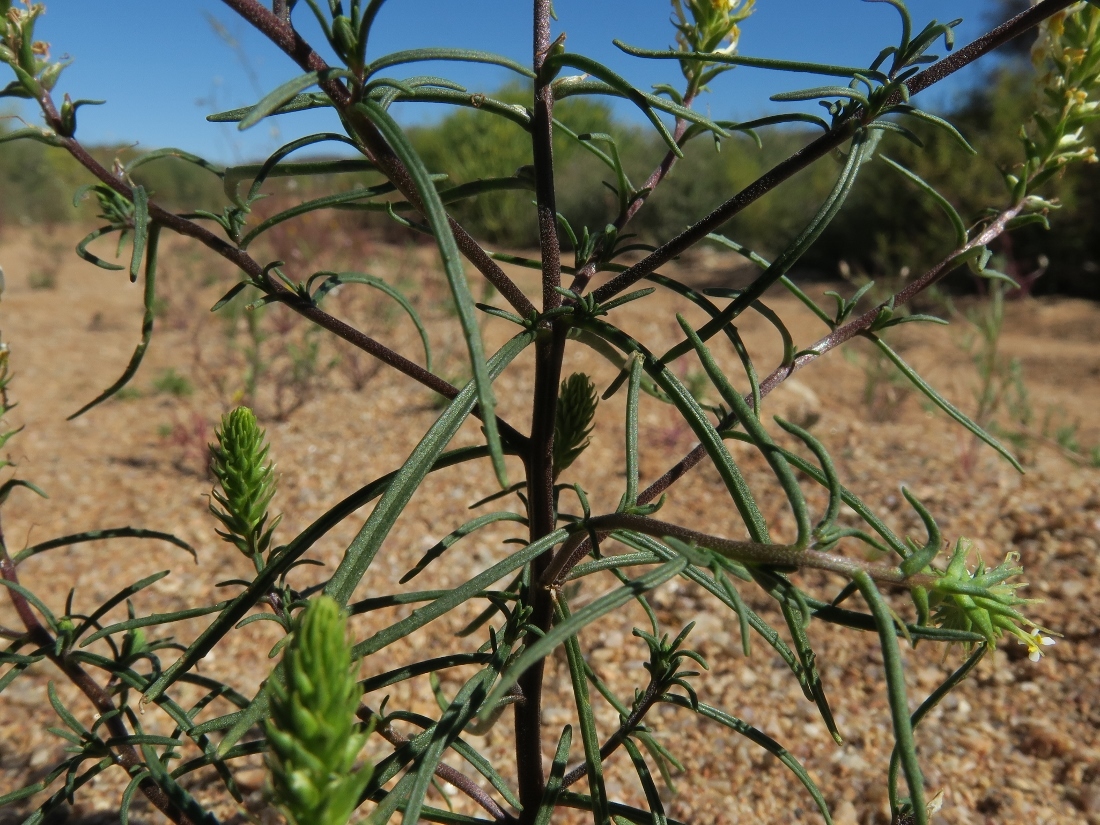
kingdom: Plantae
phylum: Tracheophyta
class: Magnoliopsida
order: Lamiales
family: Scrophulariaceae
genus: Hebenstretia
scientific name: Hebenstretia parviflora
